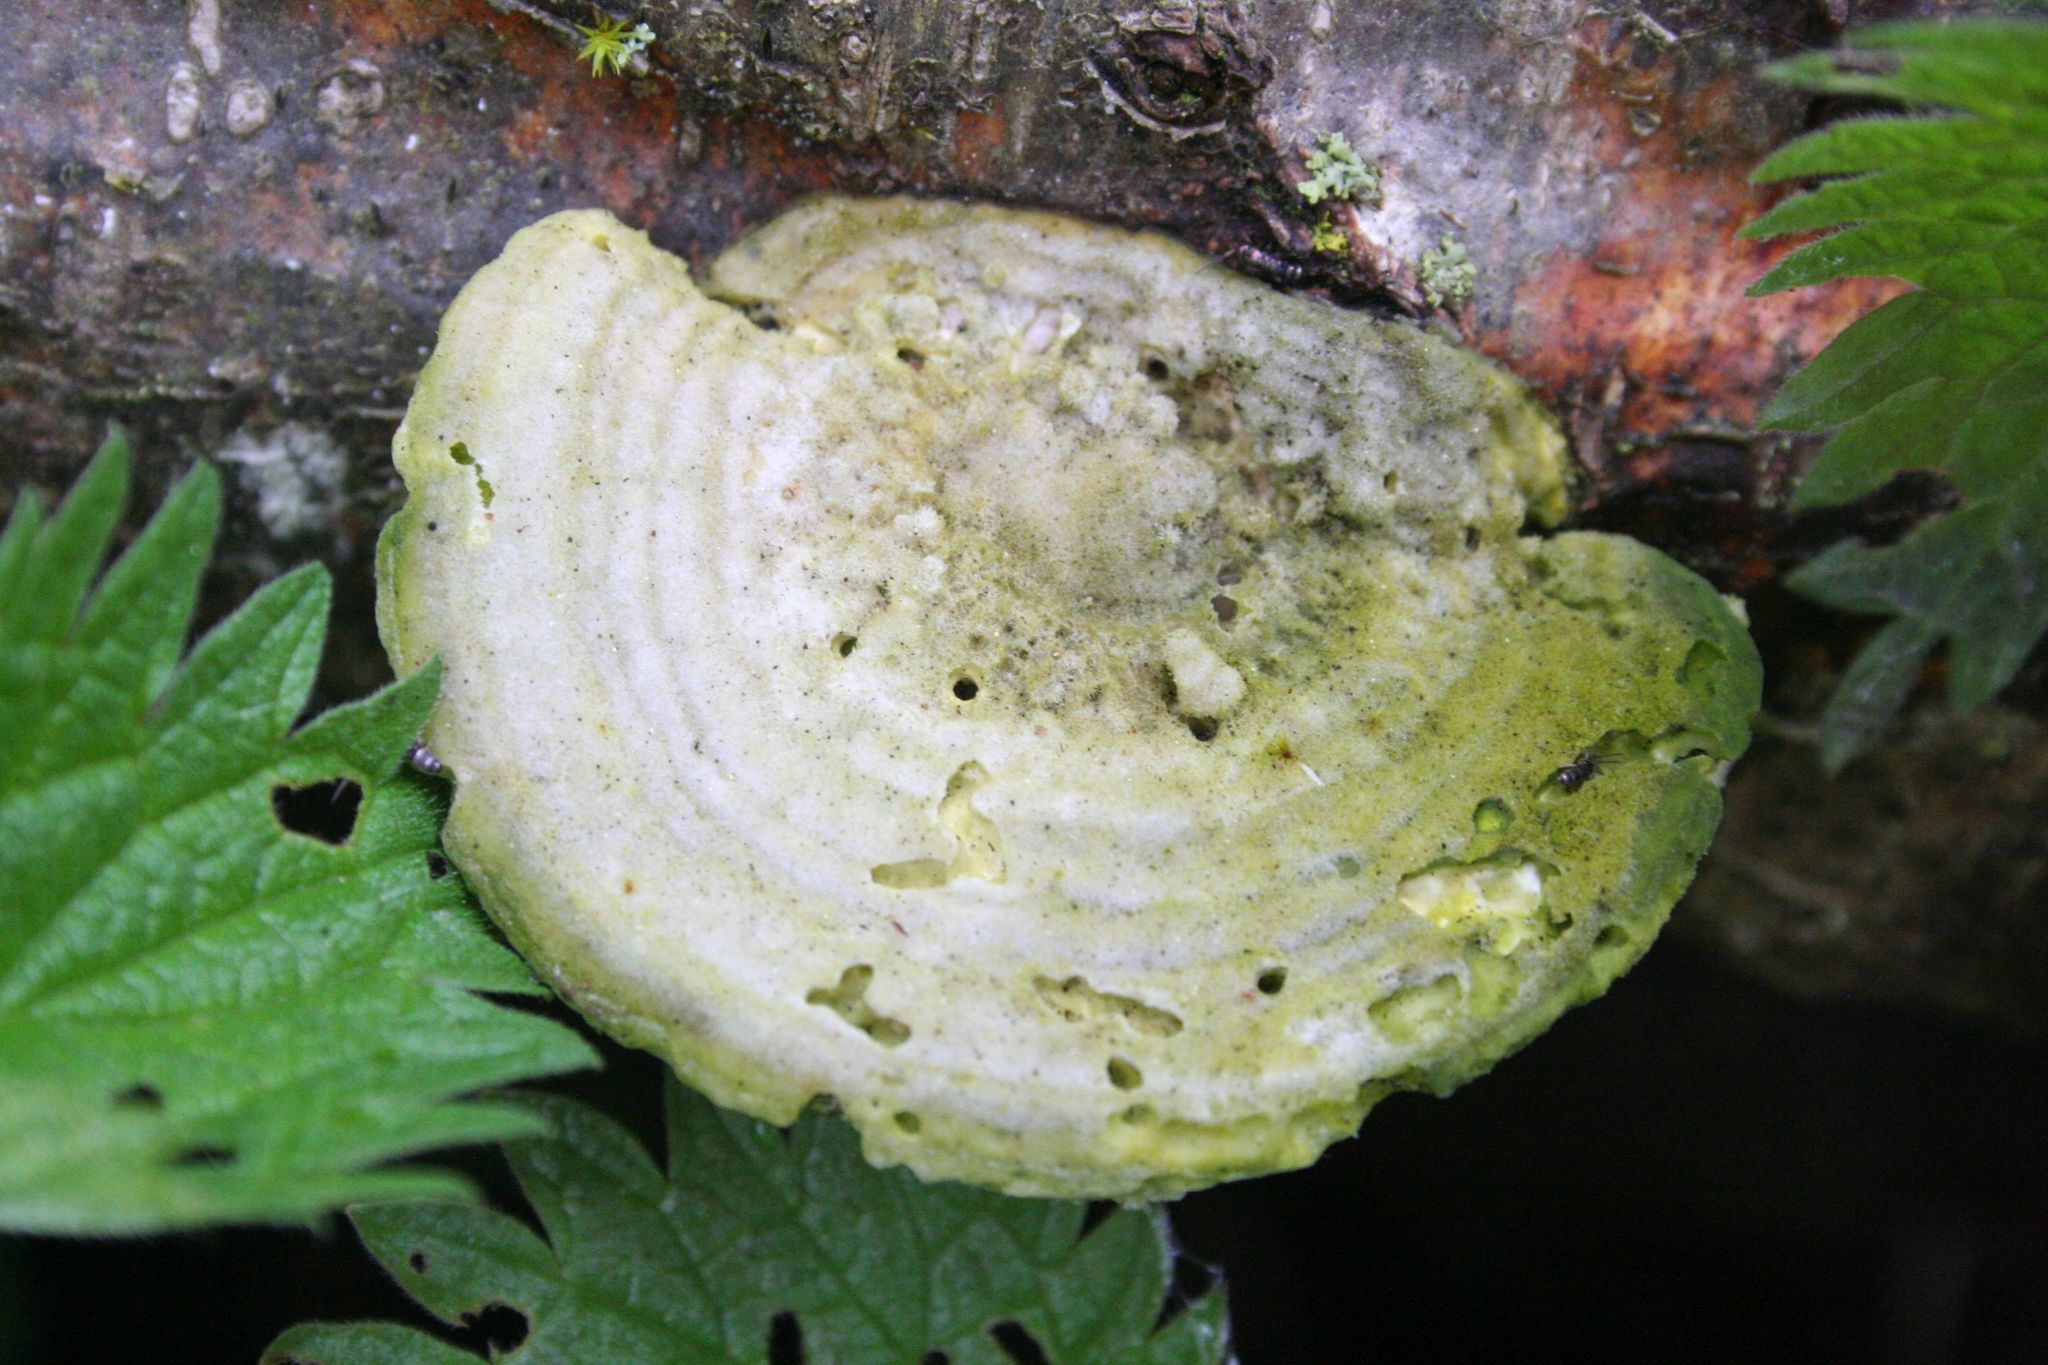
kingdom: Fungi
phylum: Basidiomycota
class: Agaricomycetes
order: Polyporales
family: Polyporaceae
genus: Trametes
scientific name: Trametes hirsuta
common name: Hairy bracket
